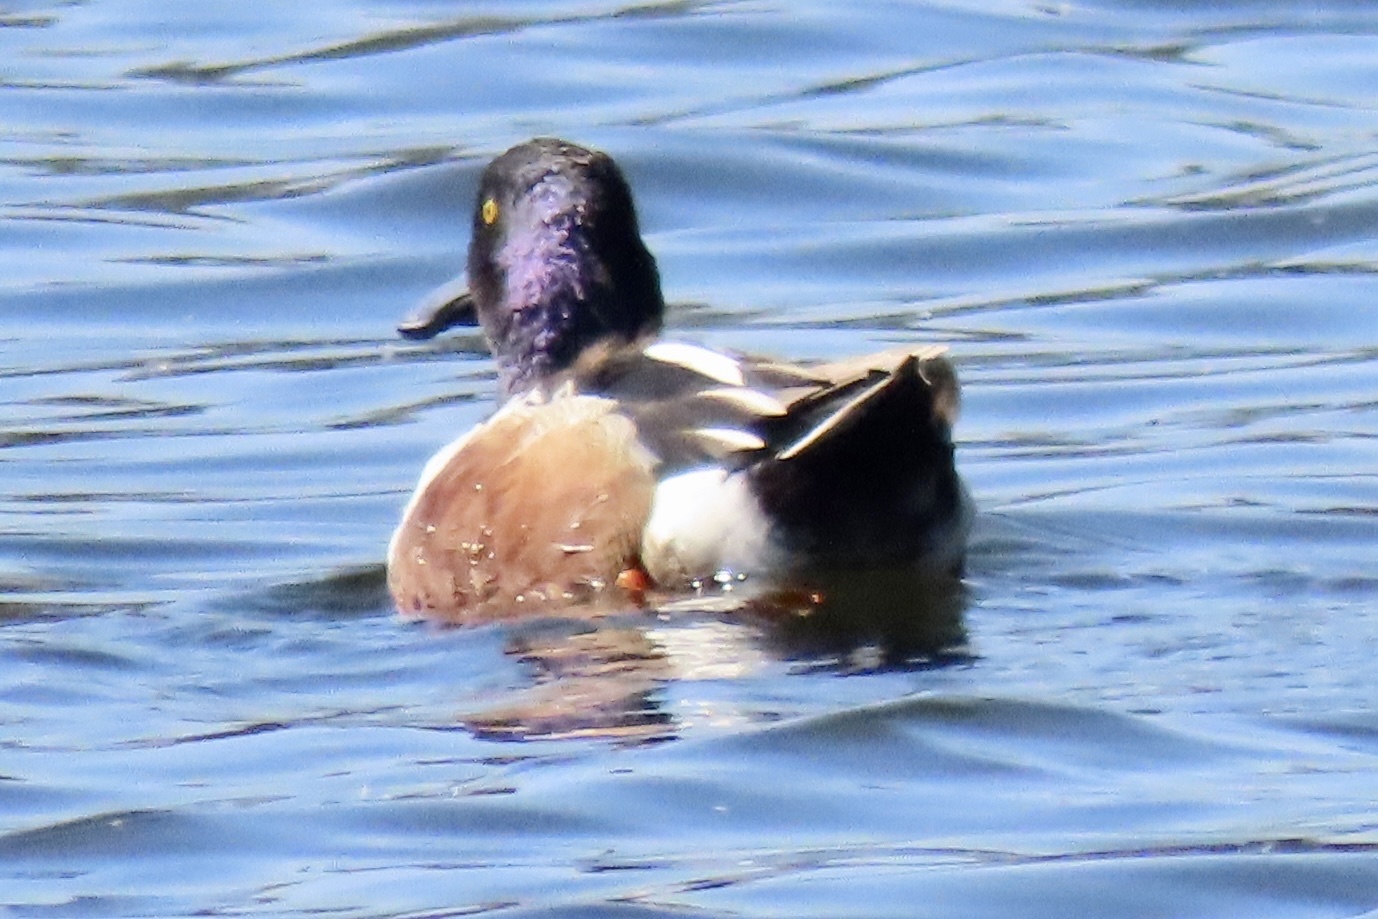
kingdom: Animalia
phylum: Chordata
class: Aves
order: Anseriformes
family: Anatidae
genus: Spatula
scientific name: Spatula clypeata
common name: Northern shoveler
